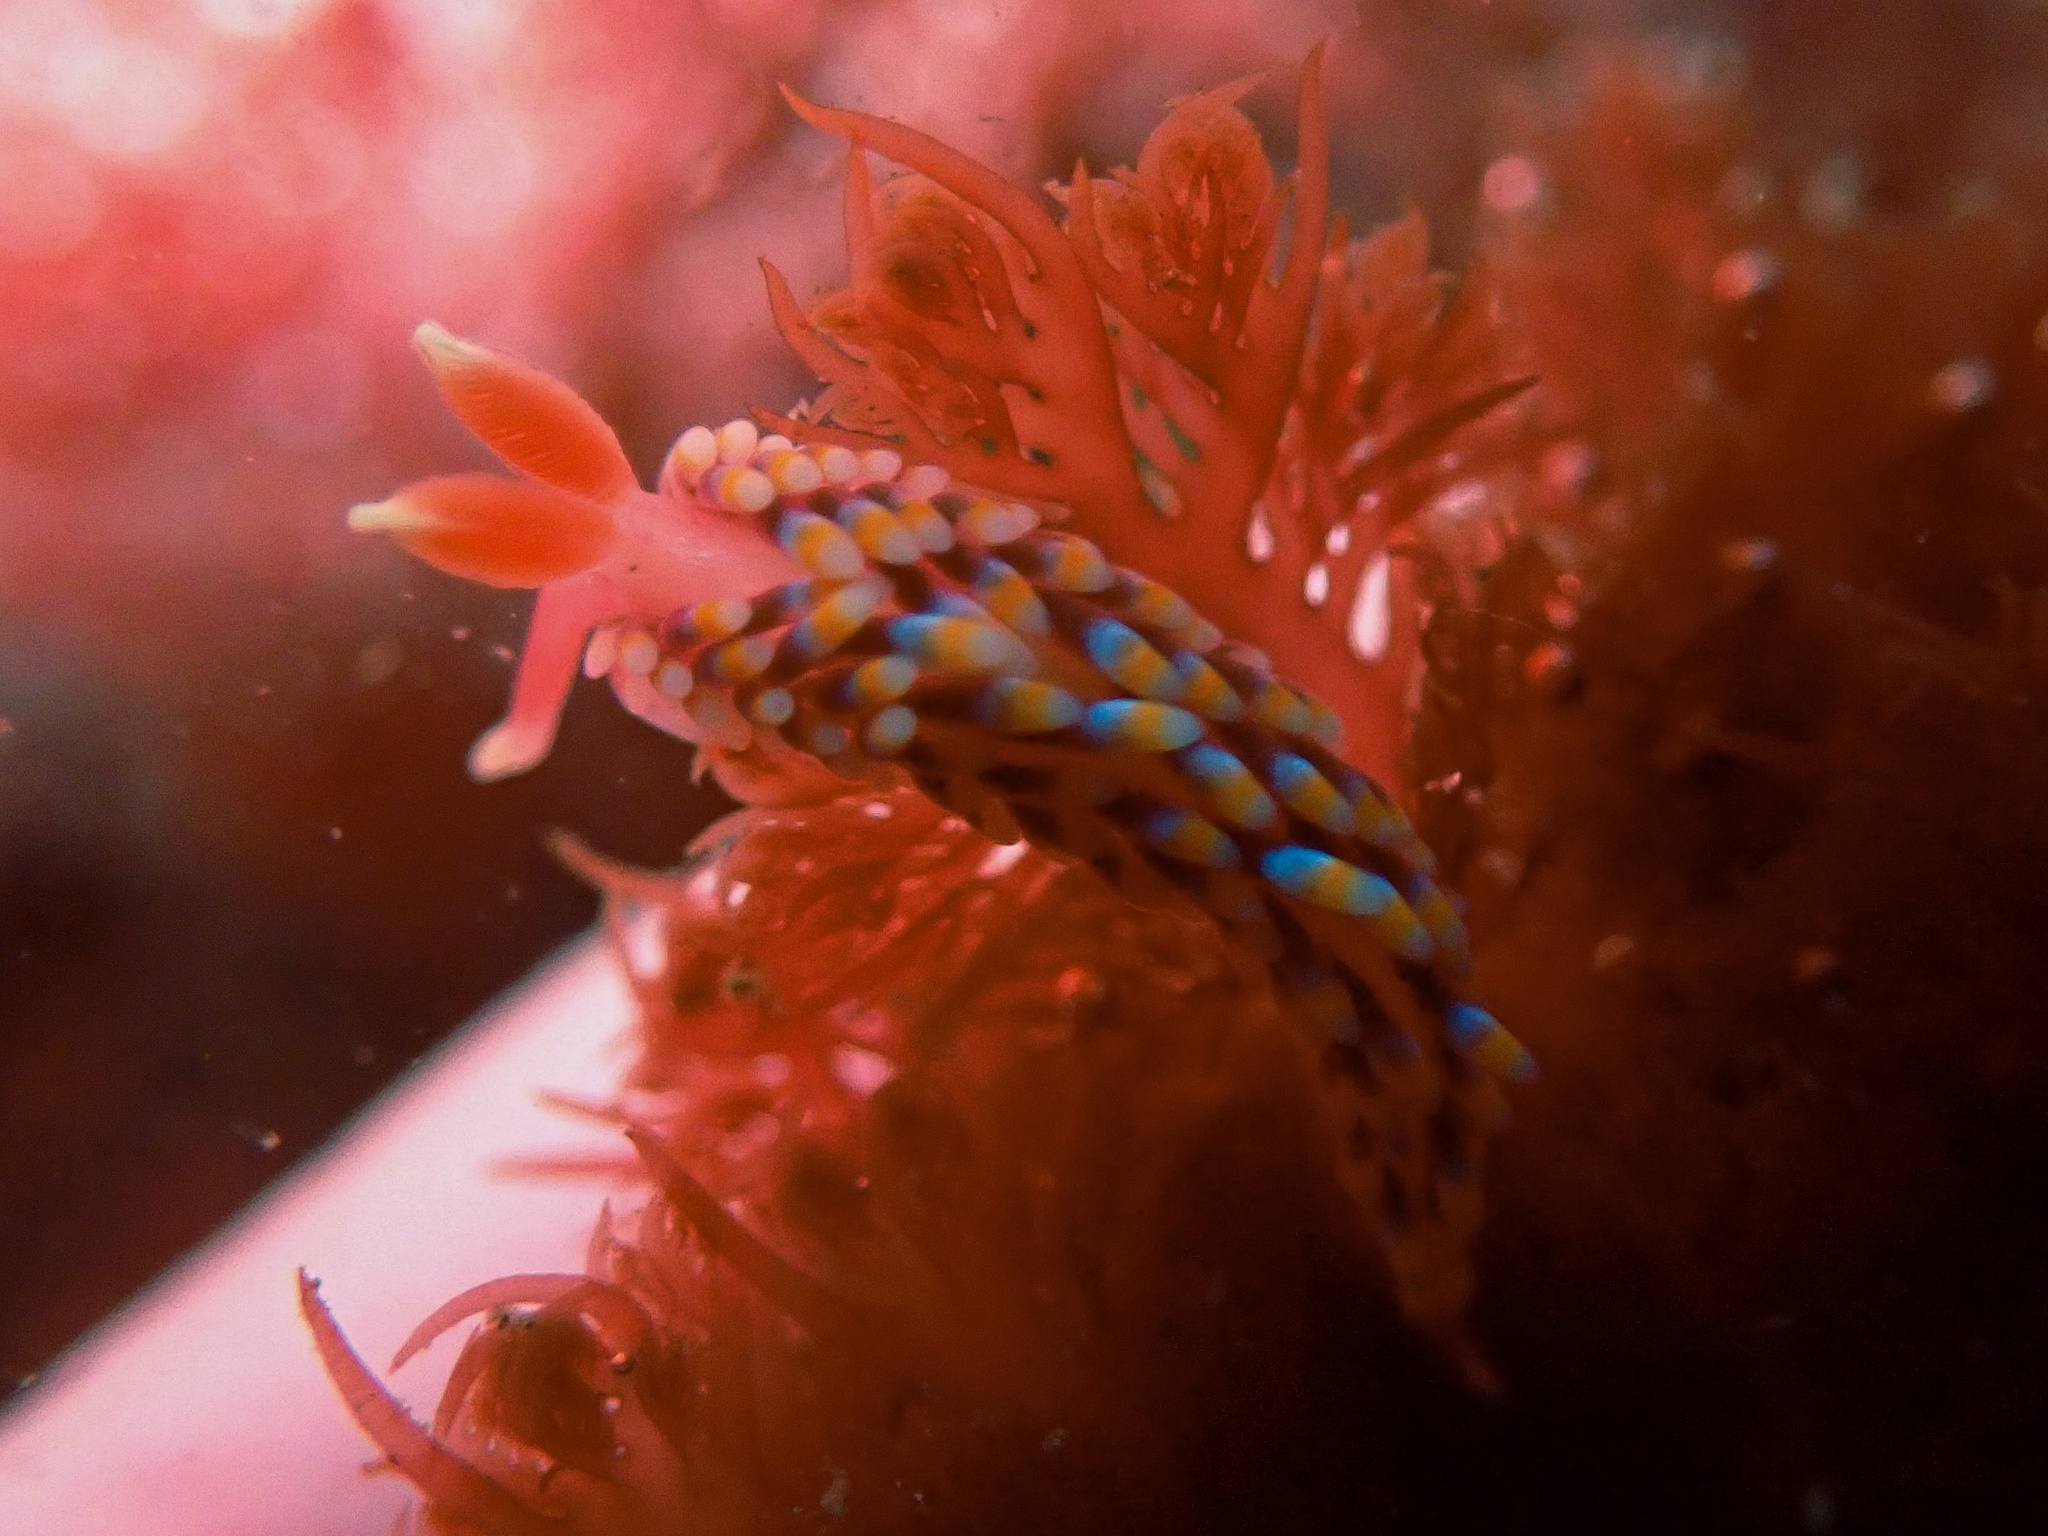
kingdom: Animalia
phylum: Mollusca
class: Gastropoda
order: Nudibranchia
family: Babakinidae
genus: Babakina
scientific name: Babakina festiva
